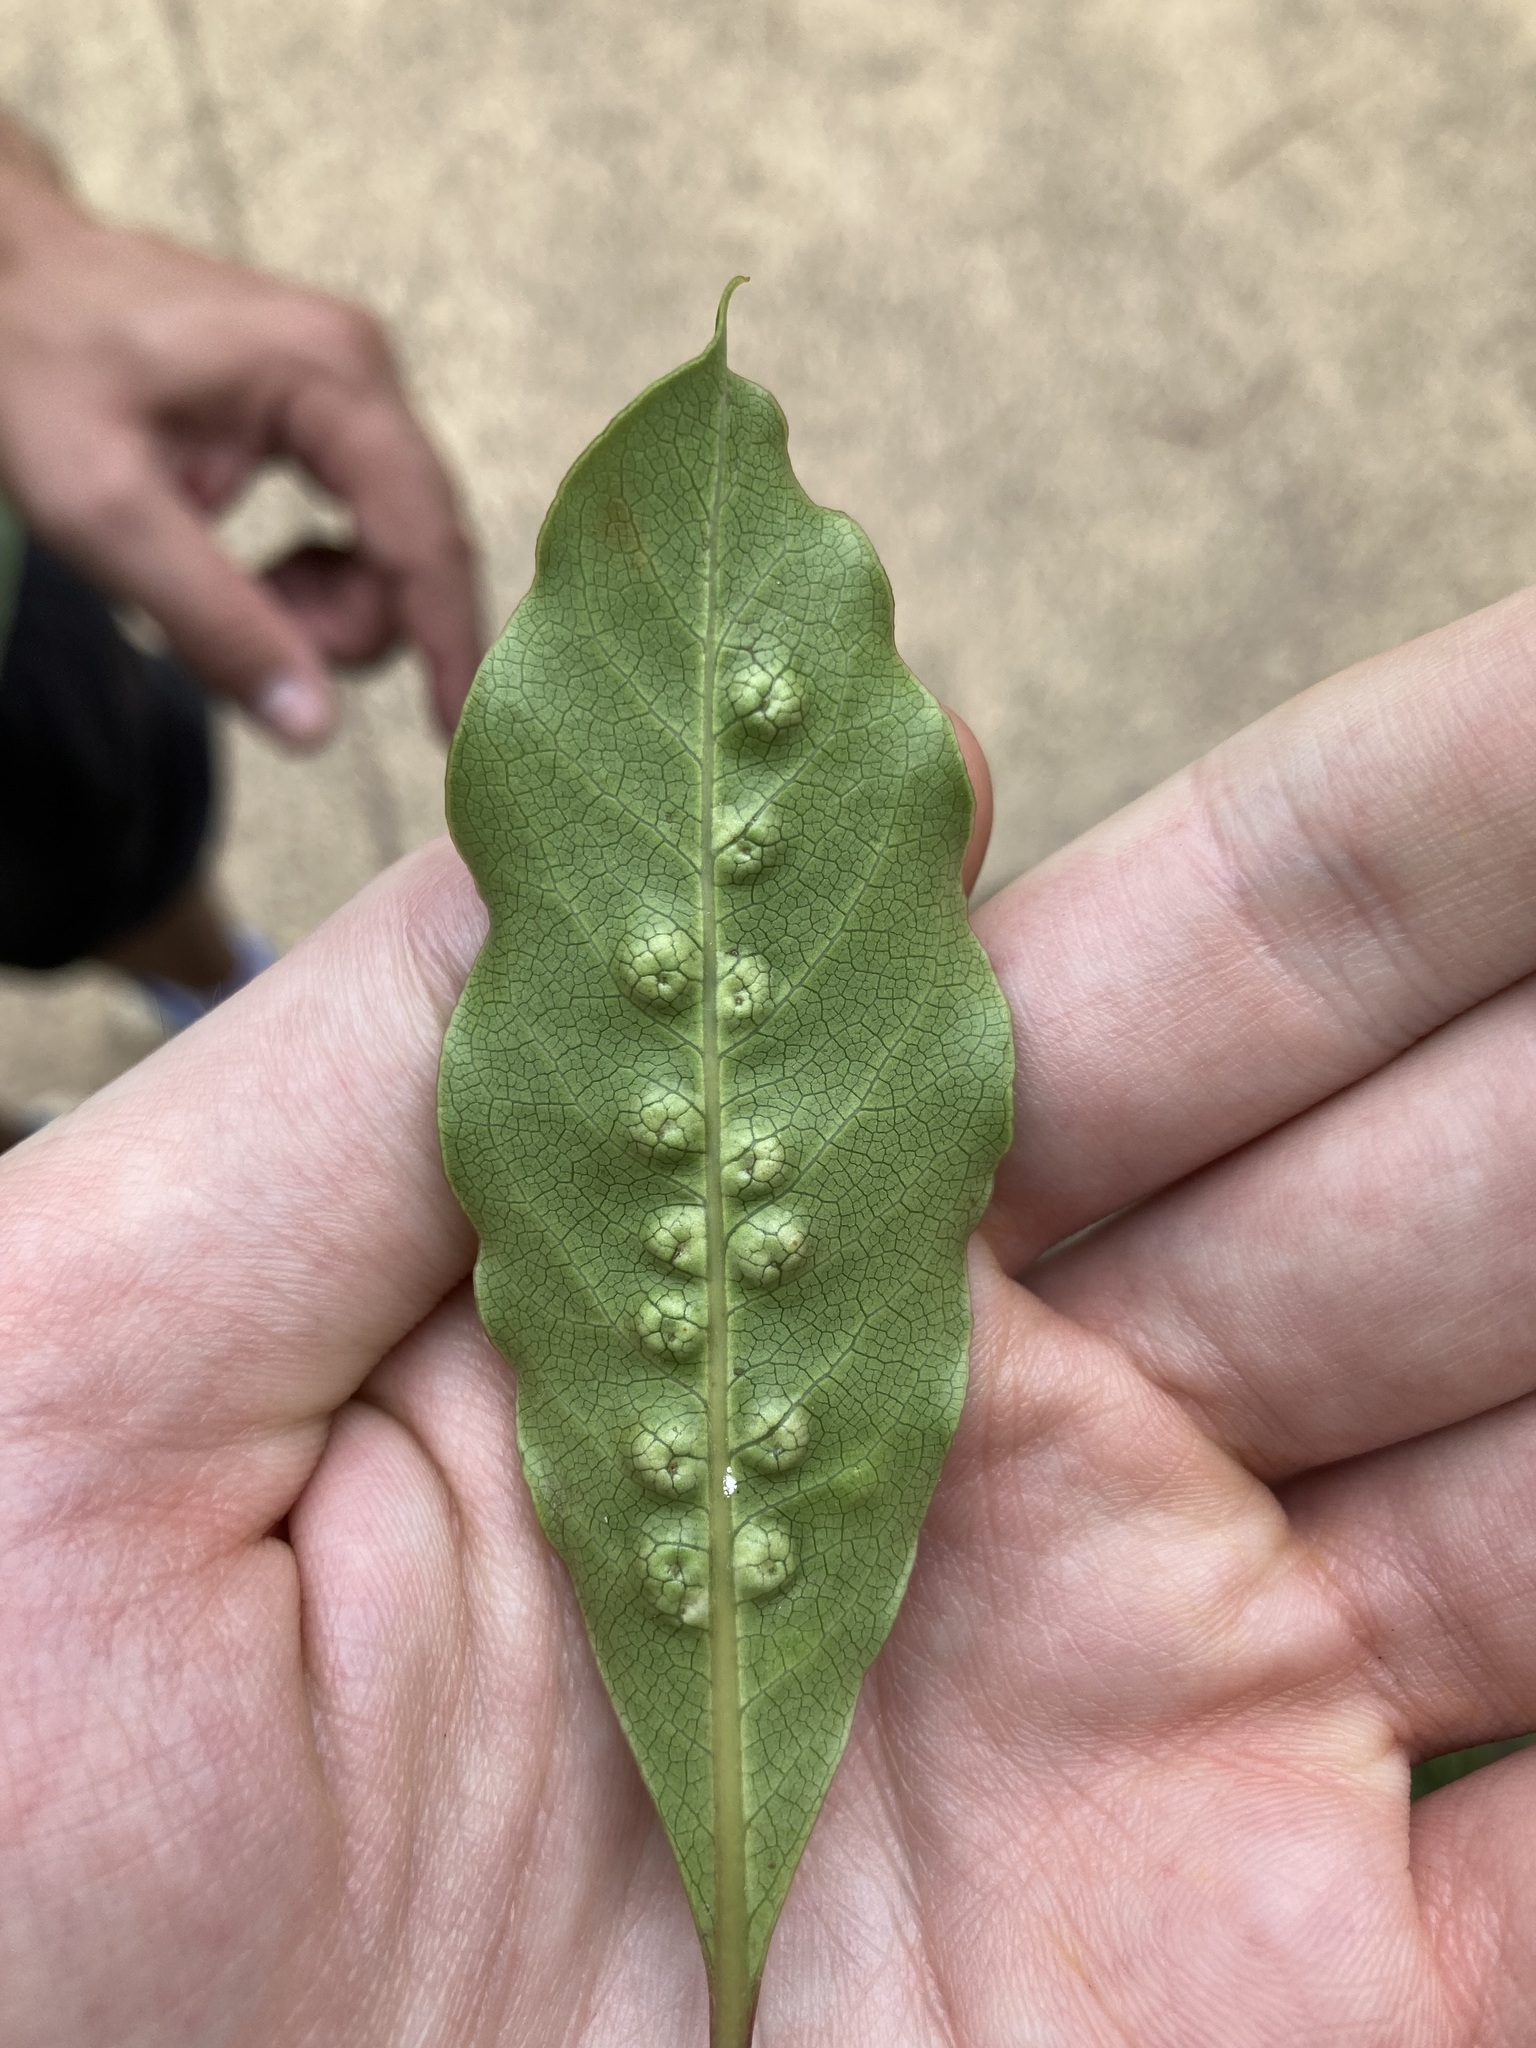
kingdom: Animalia
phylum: Arthropoda
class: Insecta
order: Diptera
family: Agromyzidae
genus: Phytoliriomyza
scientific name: Phytoliriomyza pittosporophylli
